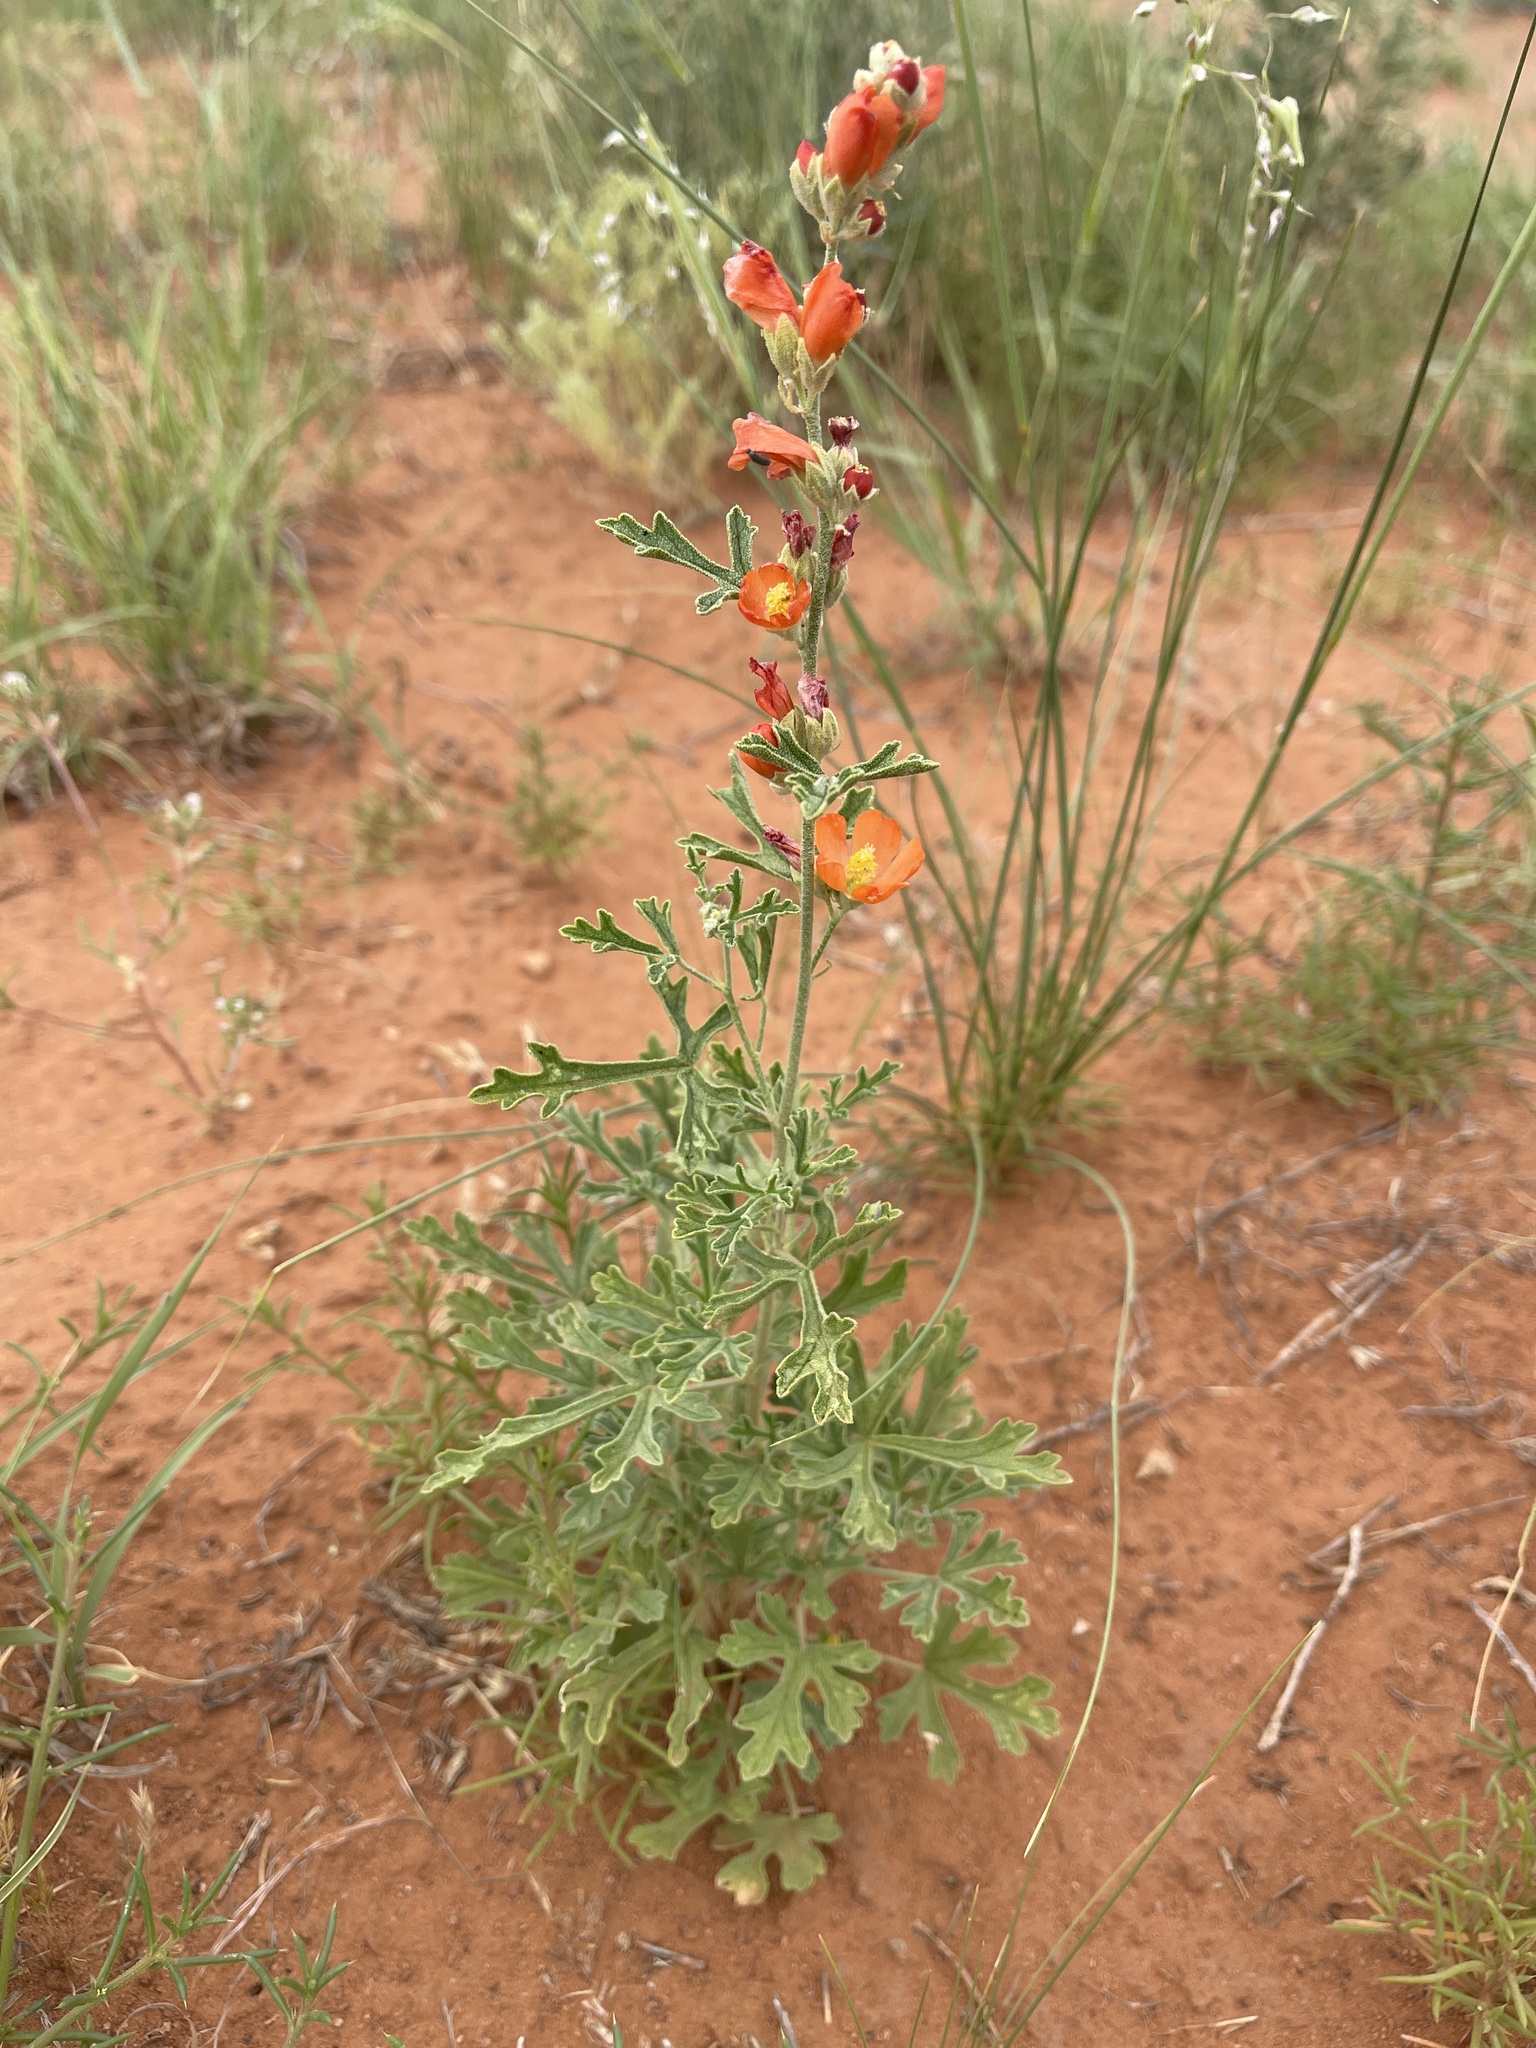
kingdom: Plantae
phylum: Tracheophyta
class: Magnoliopsida
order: Malvales
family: Malvaceae
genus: Sphaeralcea
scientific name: Sphaeralcea grossulariifolia
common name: Current-leaf globe-mallow
